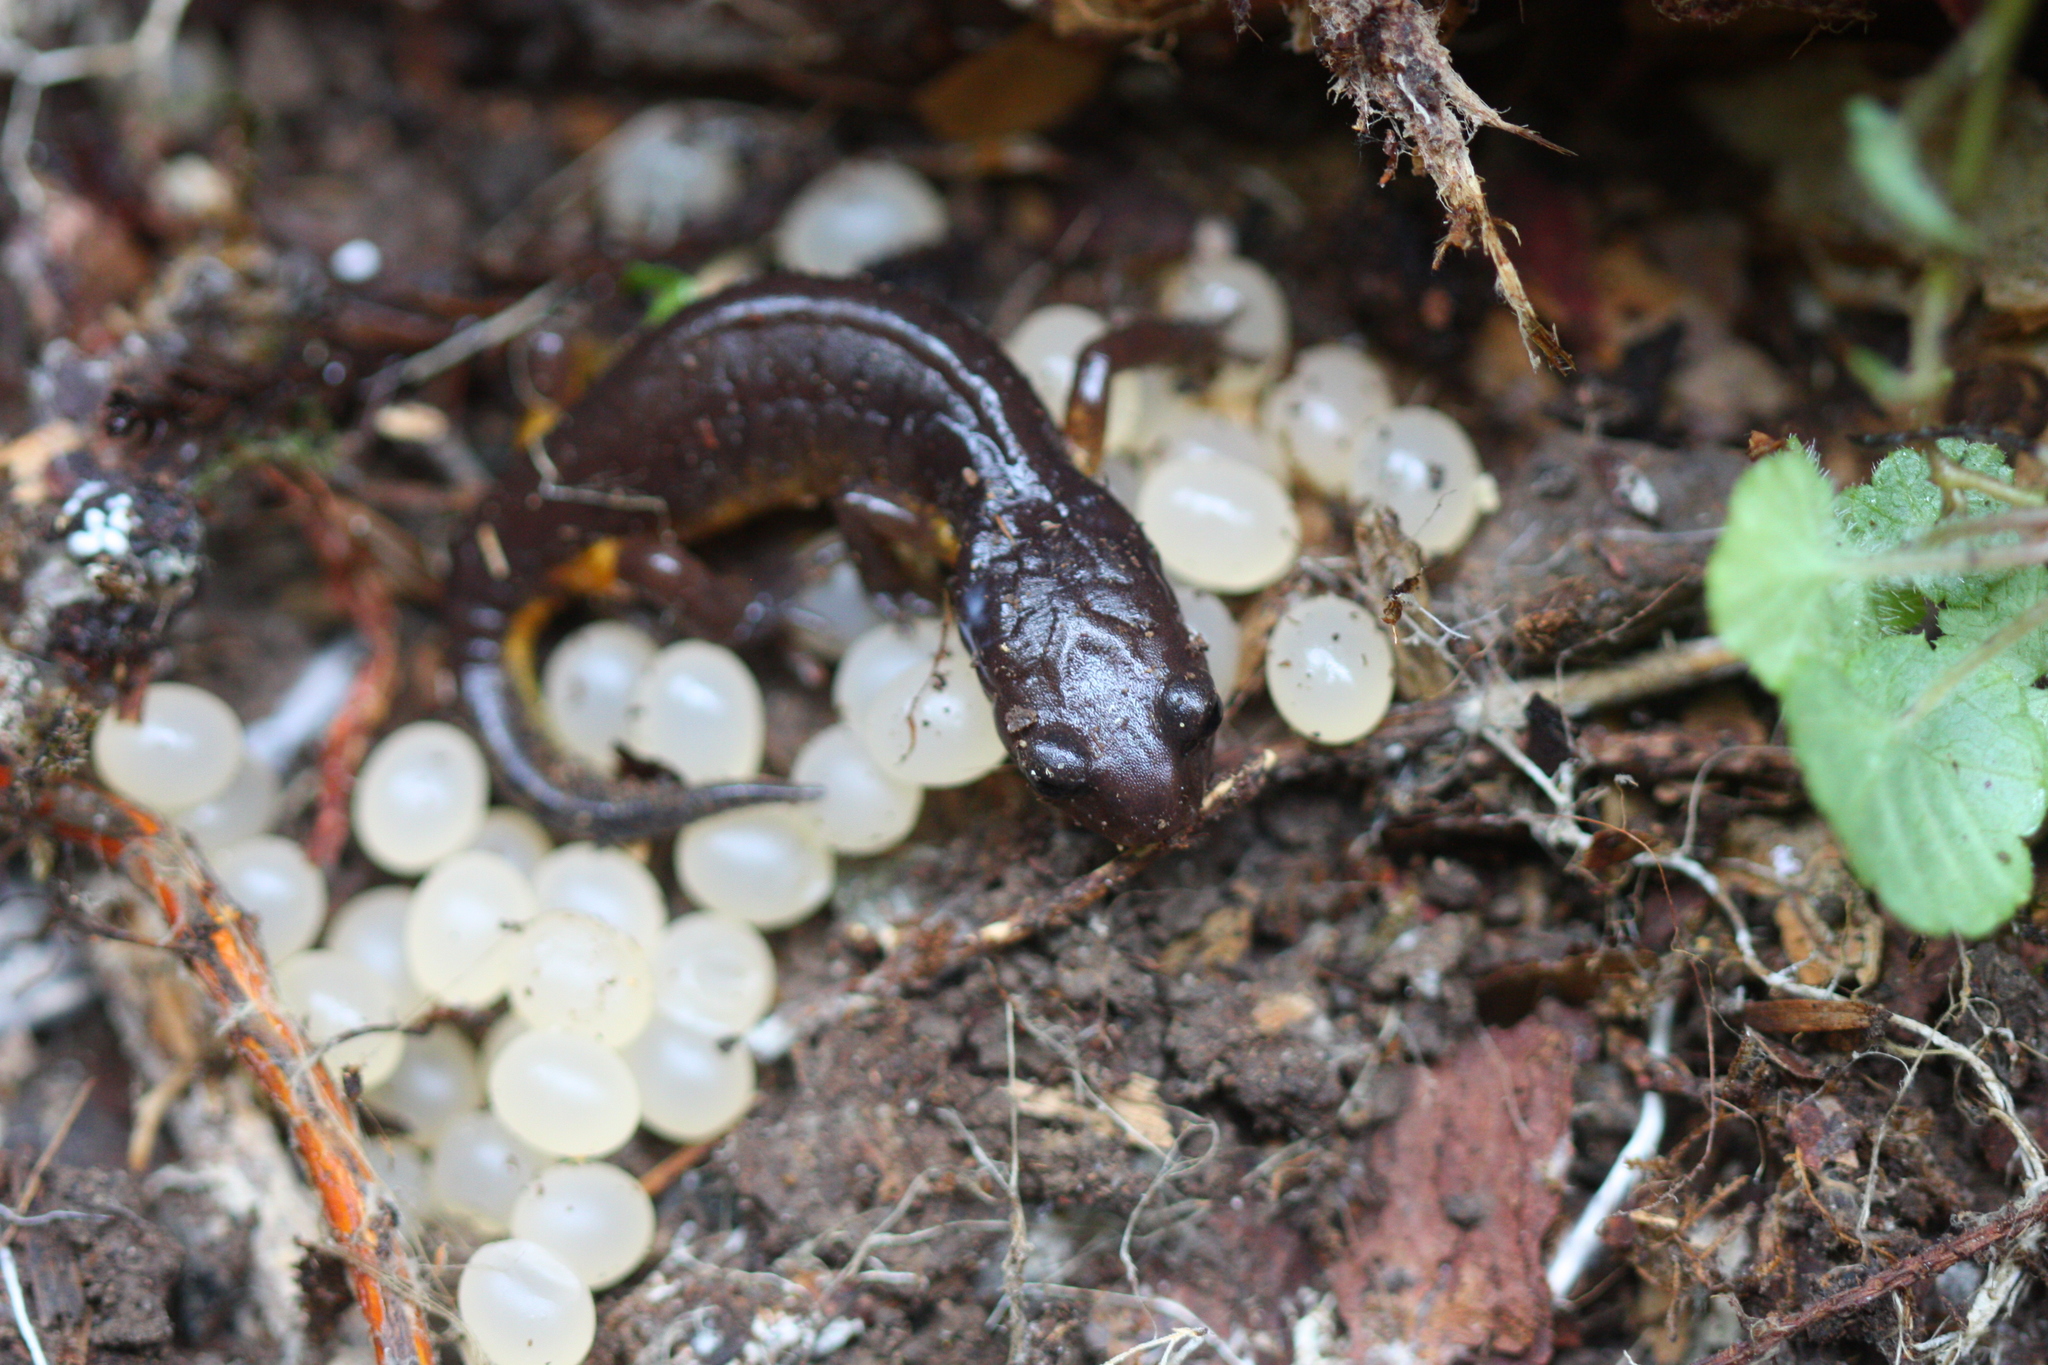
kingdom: Animalia
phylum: Chordata
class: Amphibia
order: Caudata
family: Plethodontidae
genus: Ensatina
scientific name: Ensatina eschscholtzii
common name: Ensatina
